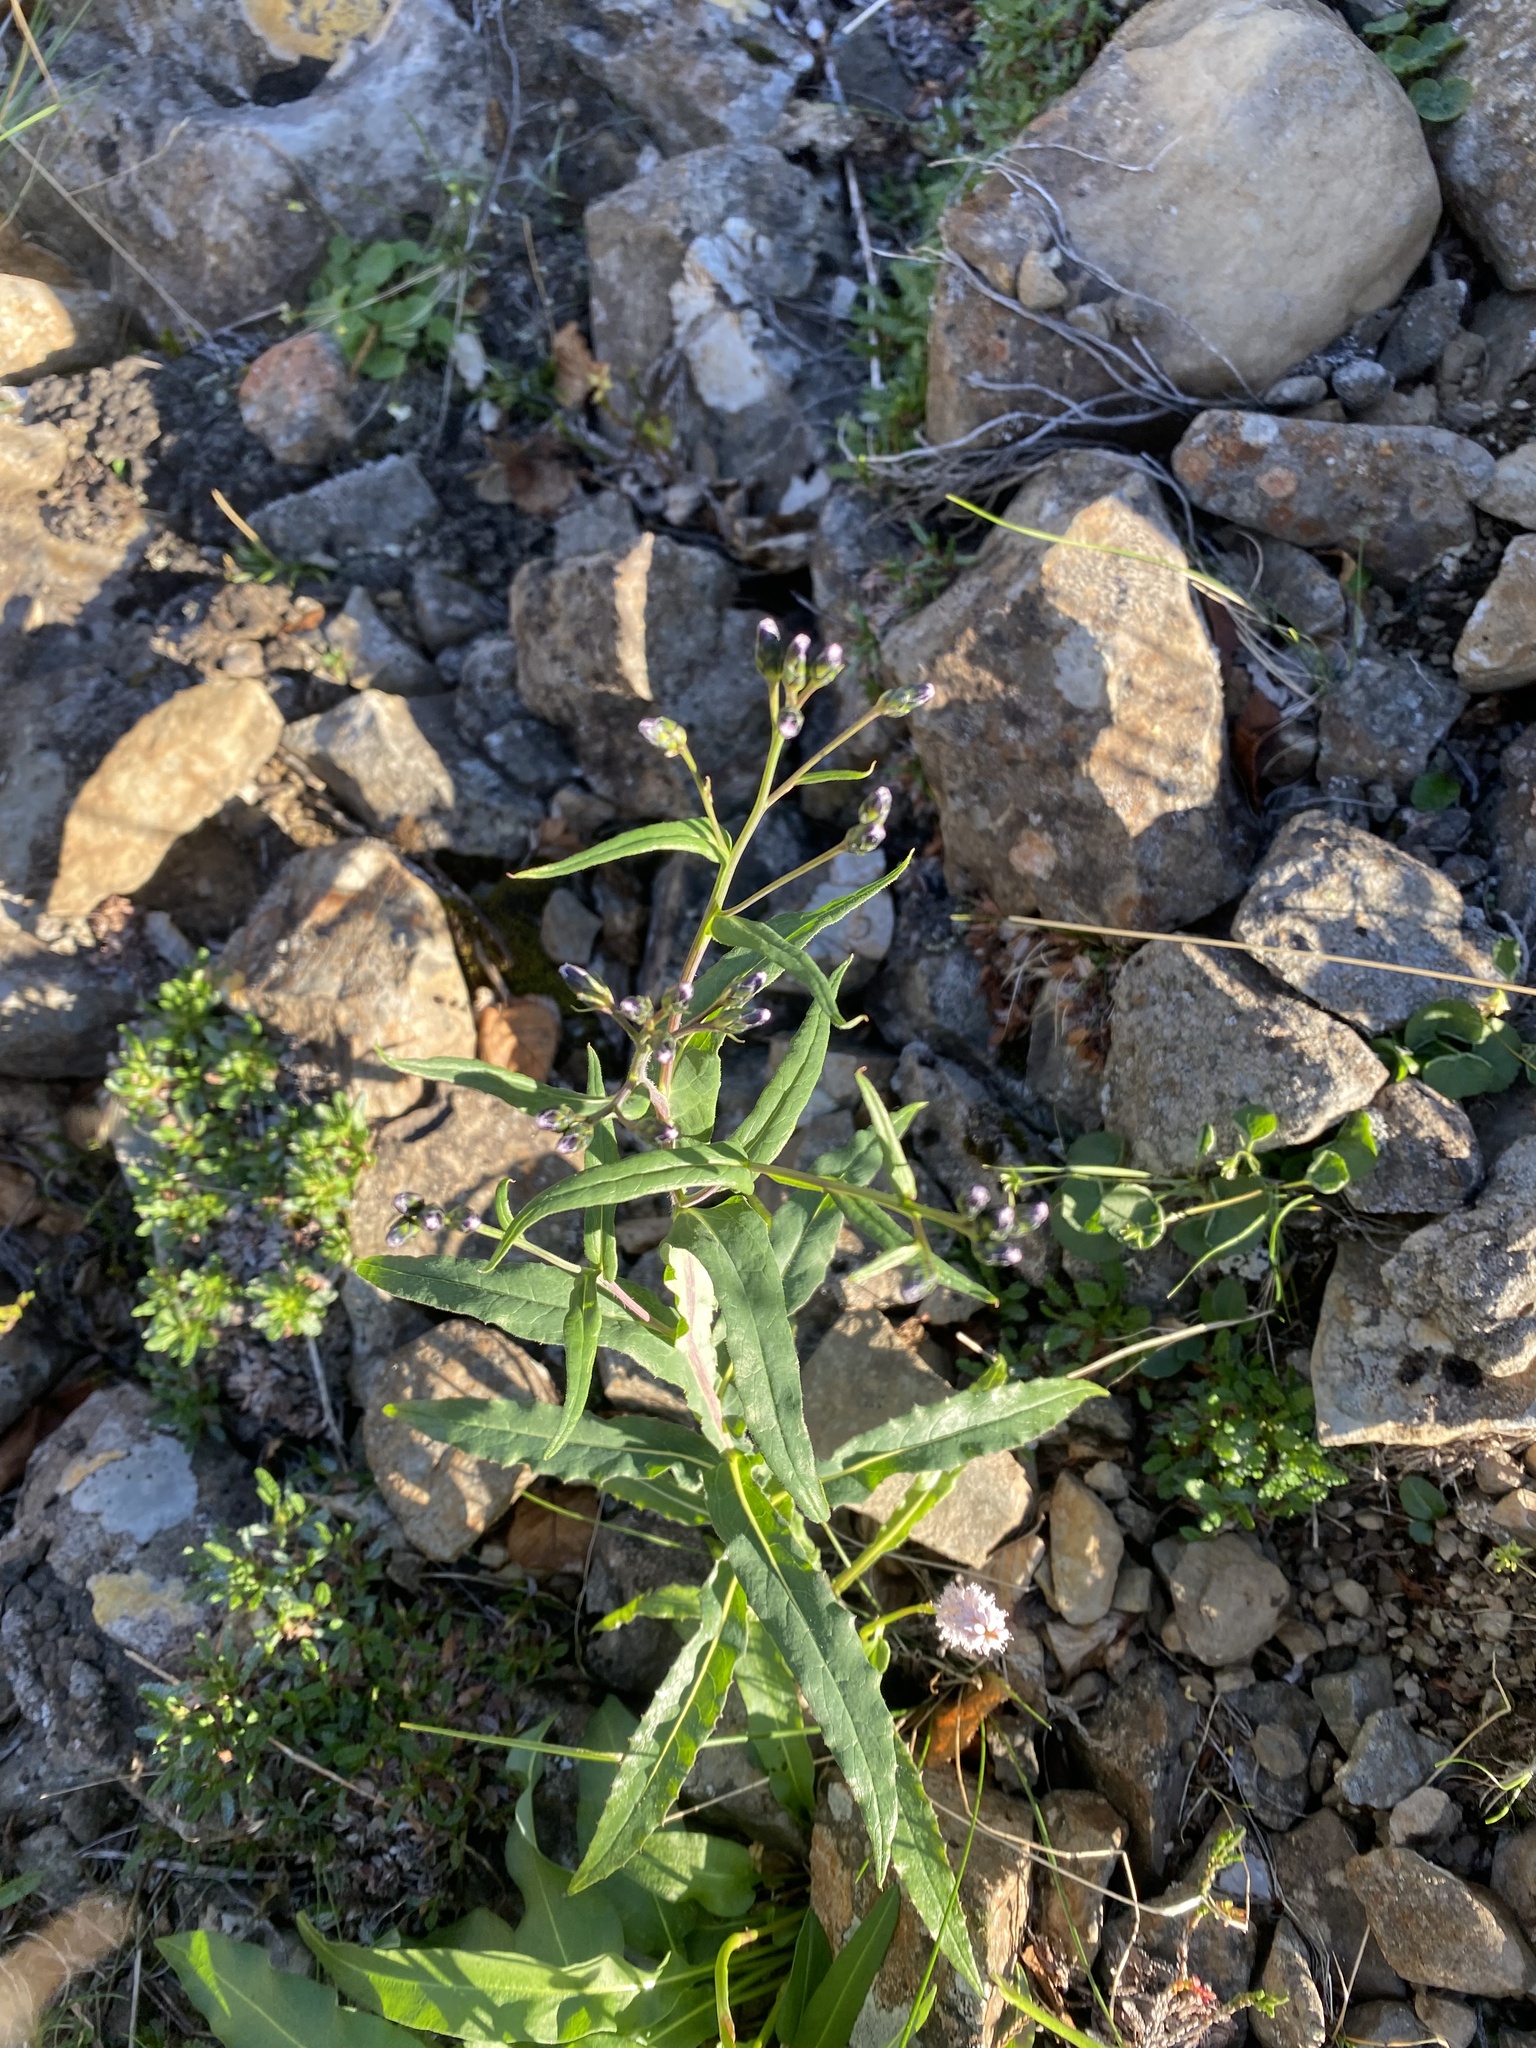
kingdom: Plantae
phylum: Tracheophyta
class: Magnoliopsida
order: Asterales
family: Asteraceae
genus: Saussurea
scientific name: Saussurea parviflora
